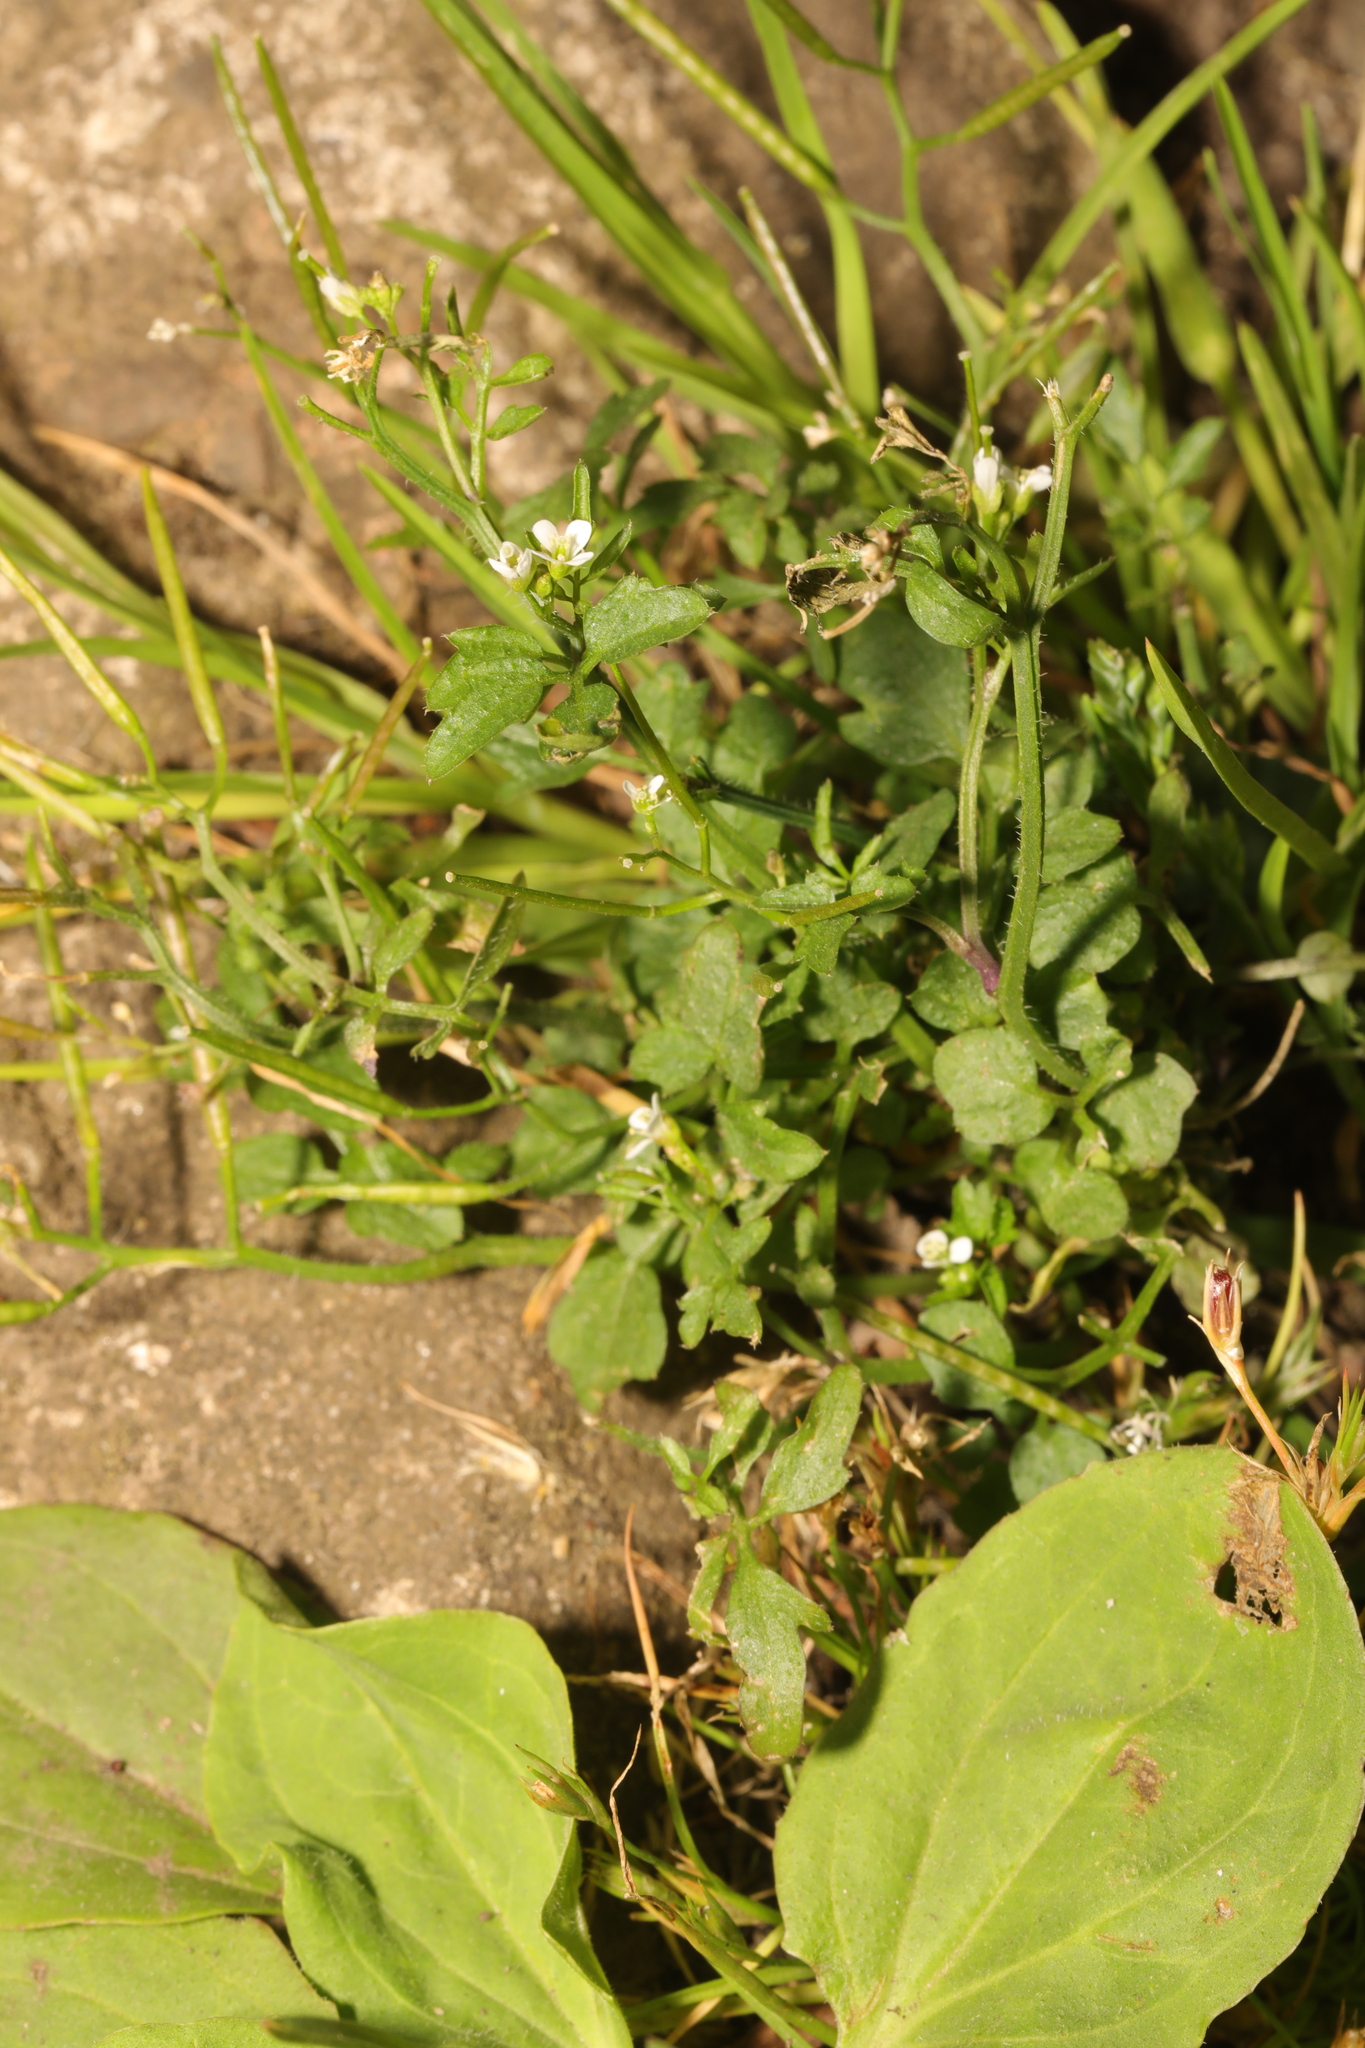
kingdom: Plantae
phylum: Tracheophyta
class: Magnoliopsida
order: Brassicales
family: Brassicaceae
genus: Cardamine
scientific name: Cardamine flexuosa
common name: Woodland bittercress
